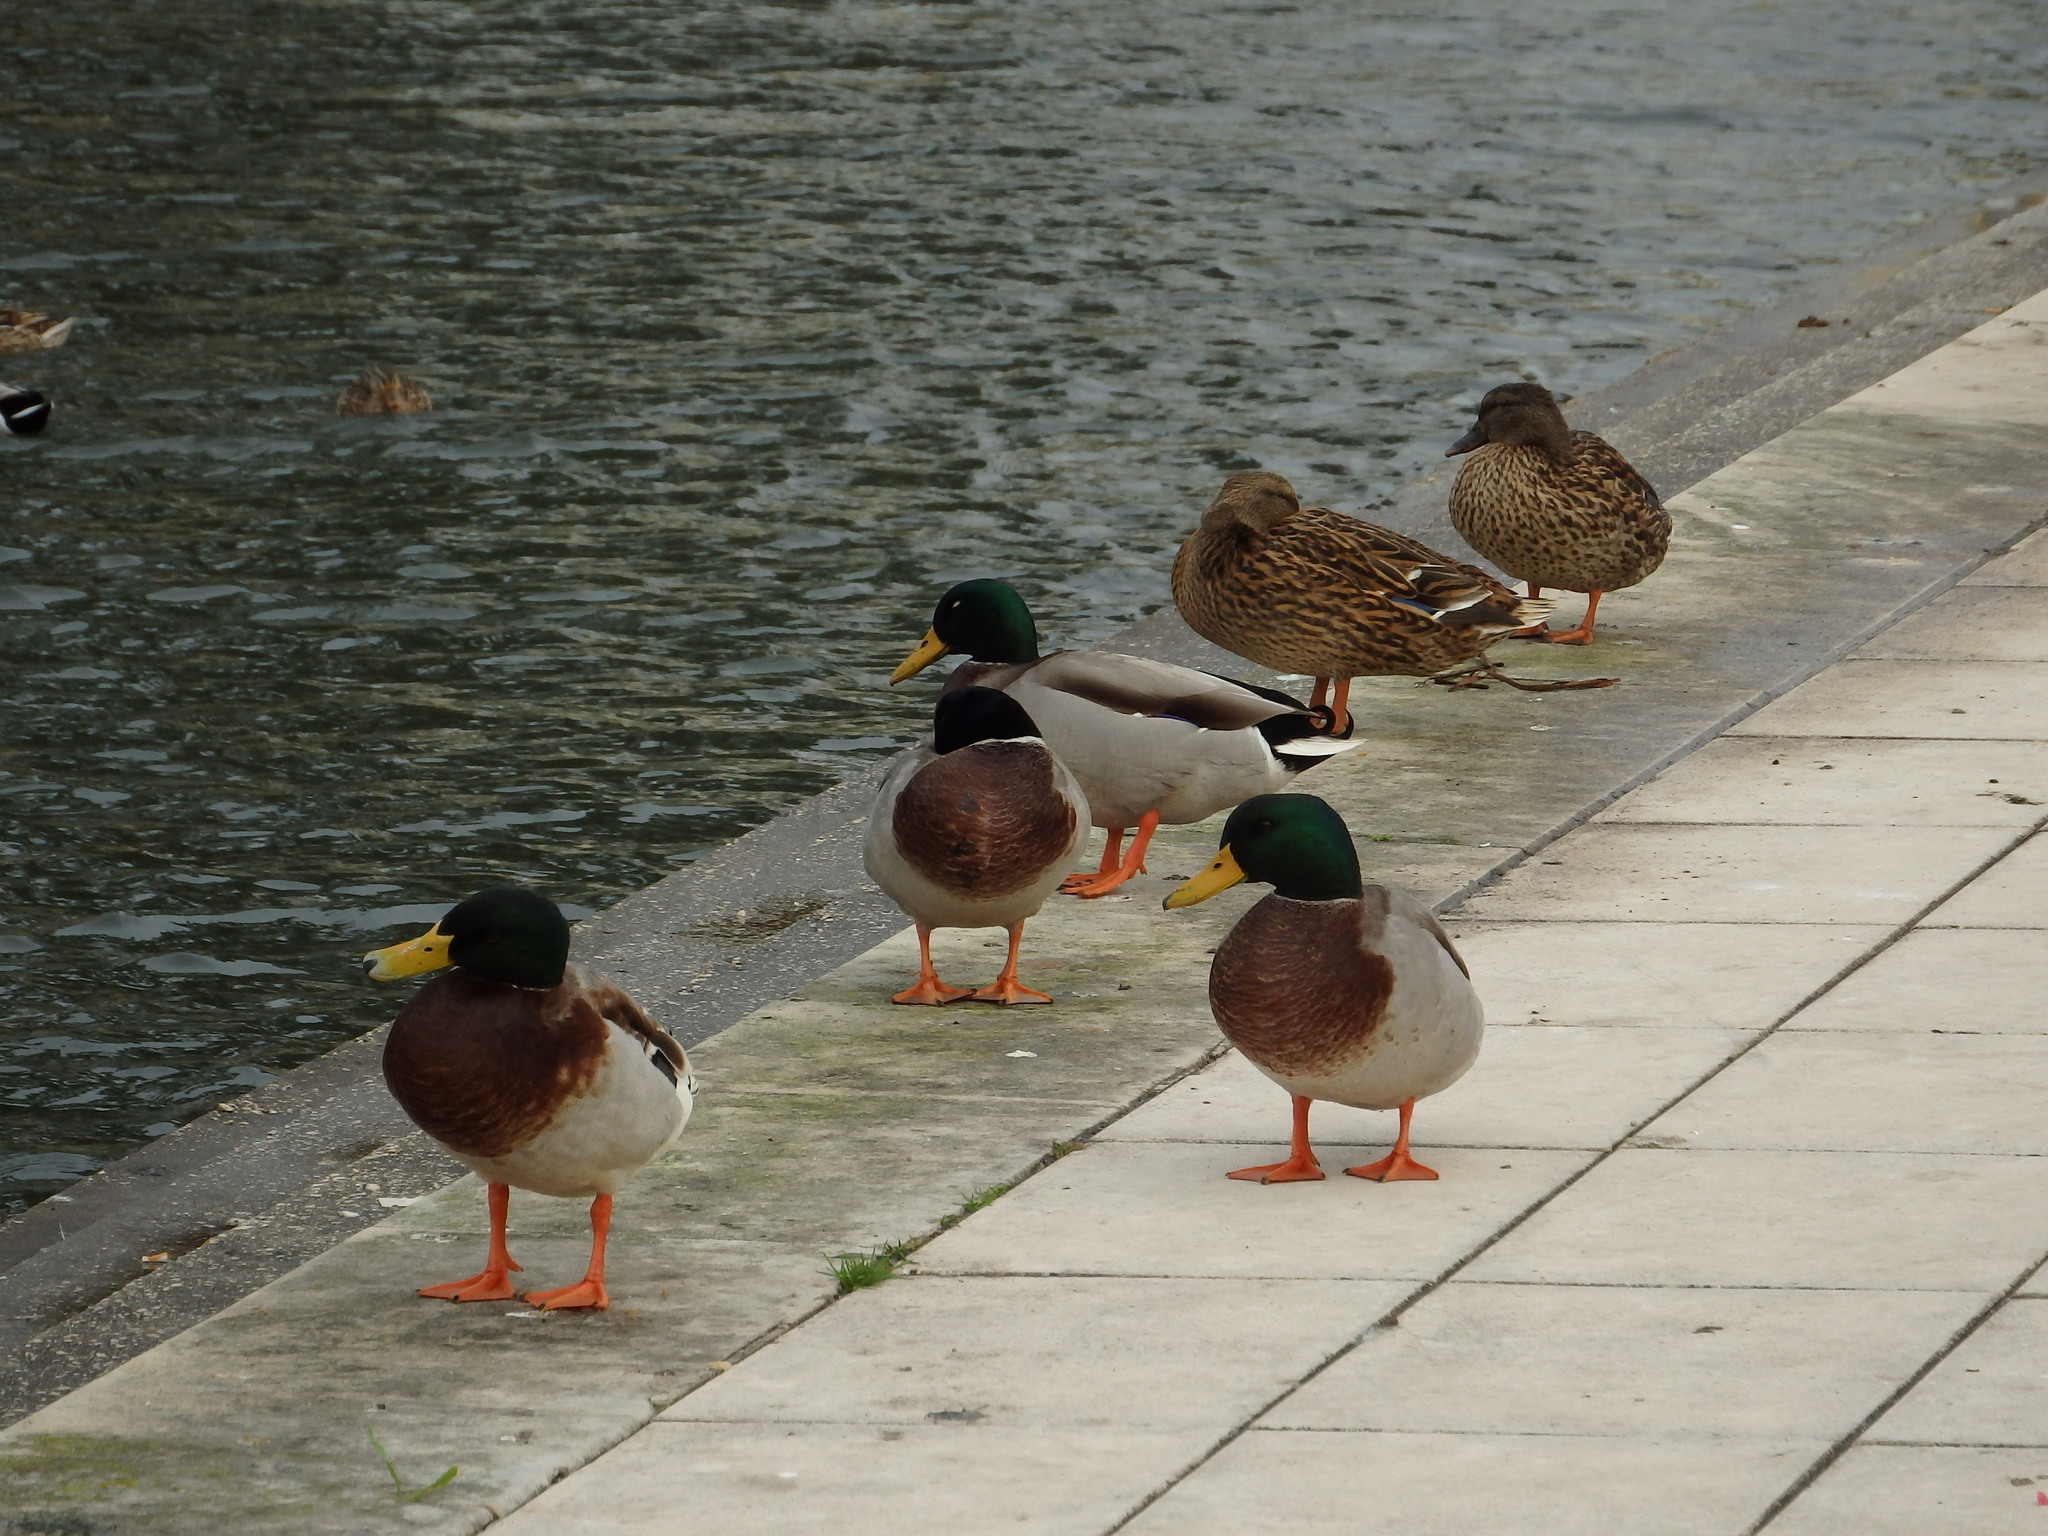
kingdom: Animalia
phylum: Chordata
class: Aves
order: Anseriformes
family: Anatidae
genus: Anas
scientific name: Anas platyrhynchos
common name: Mallard
